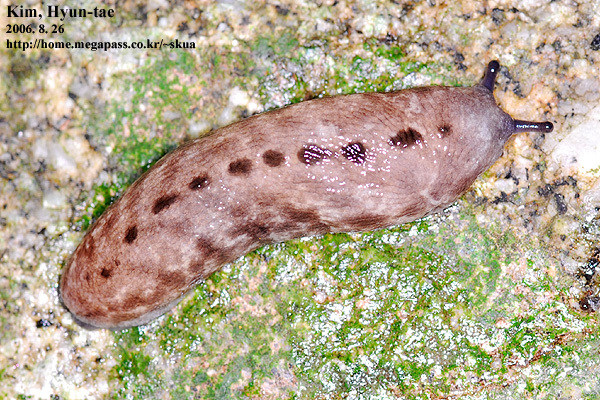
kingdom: Animalia
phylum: Mollusca
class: Gastropoda
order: Stylommatophora
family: Philomycidae
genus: Meghimatium
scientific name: Meghimatium fruhstorferi
